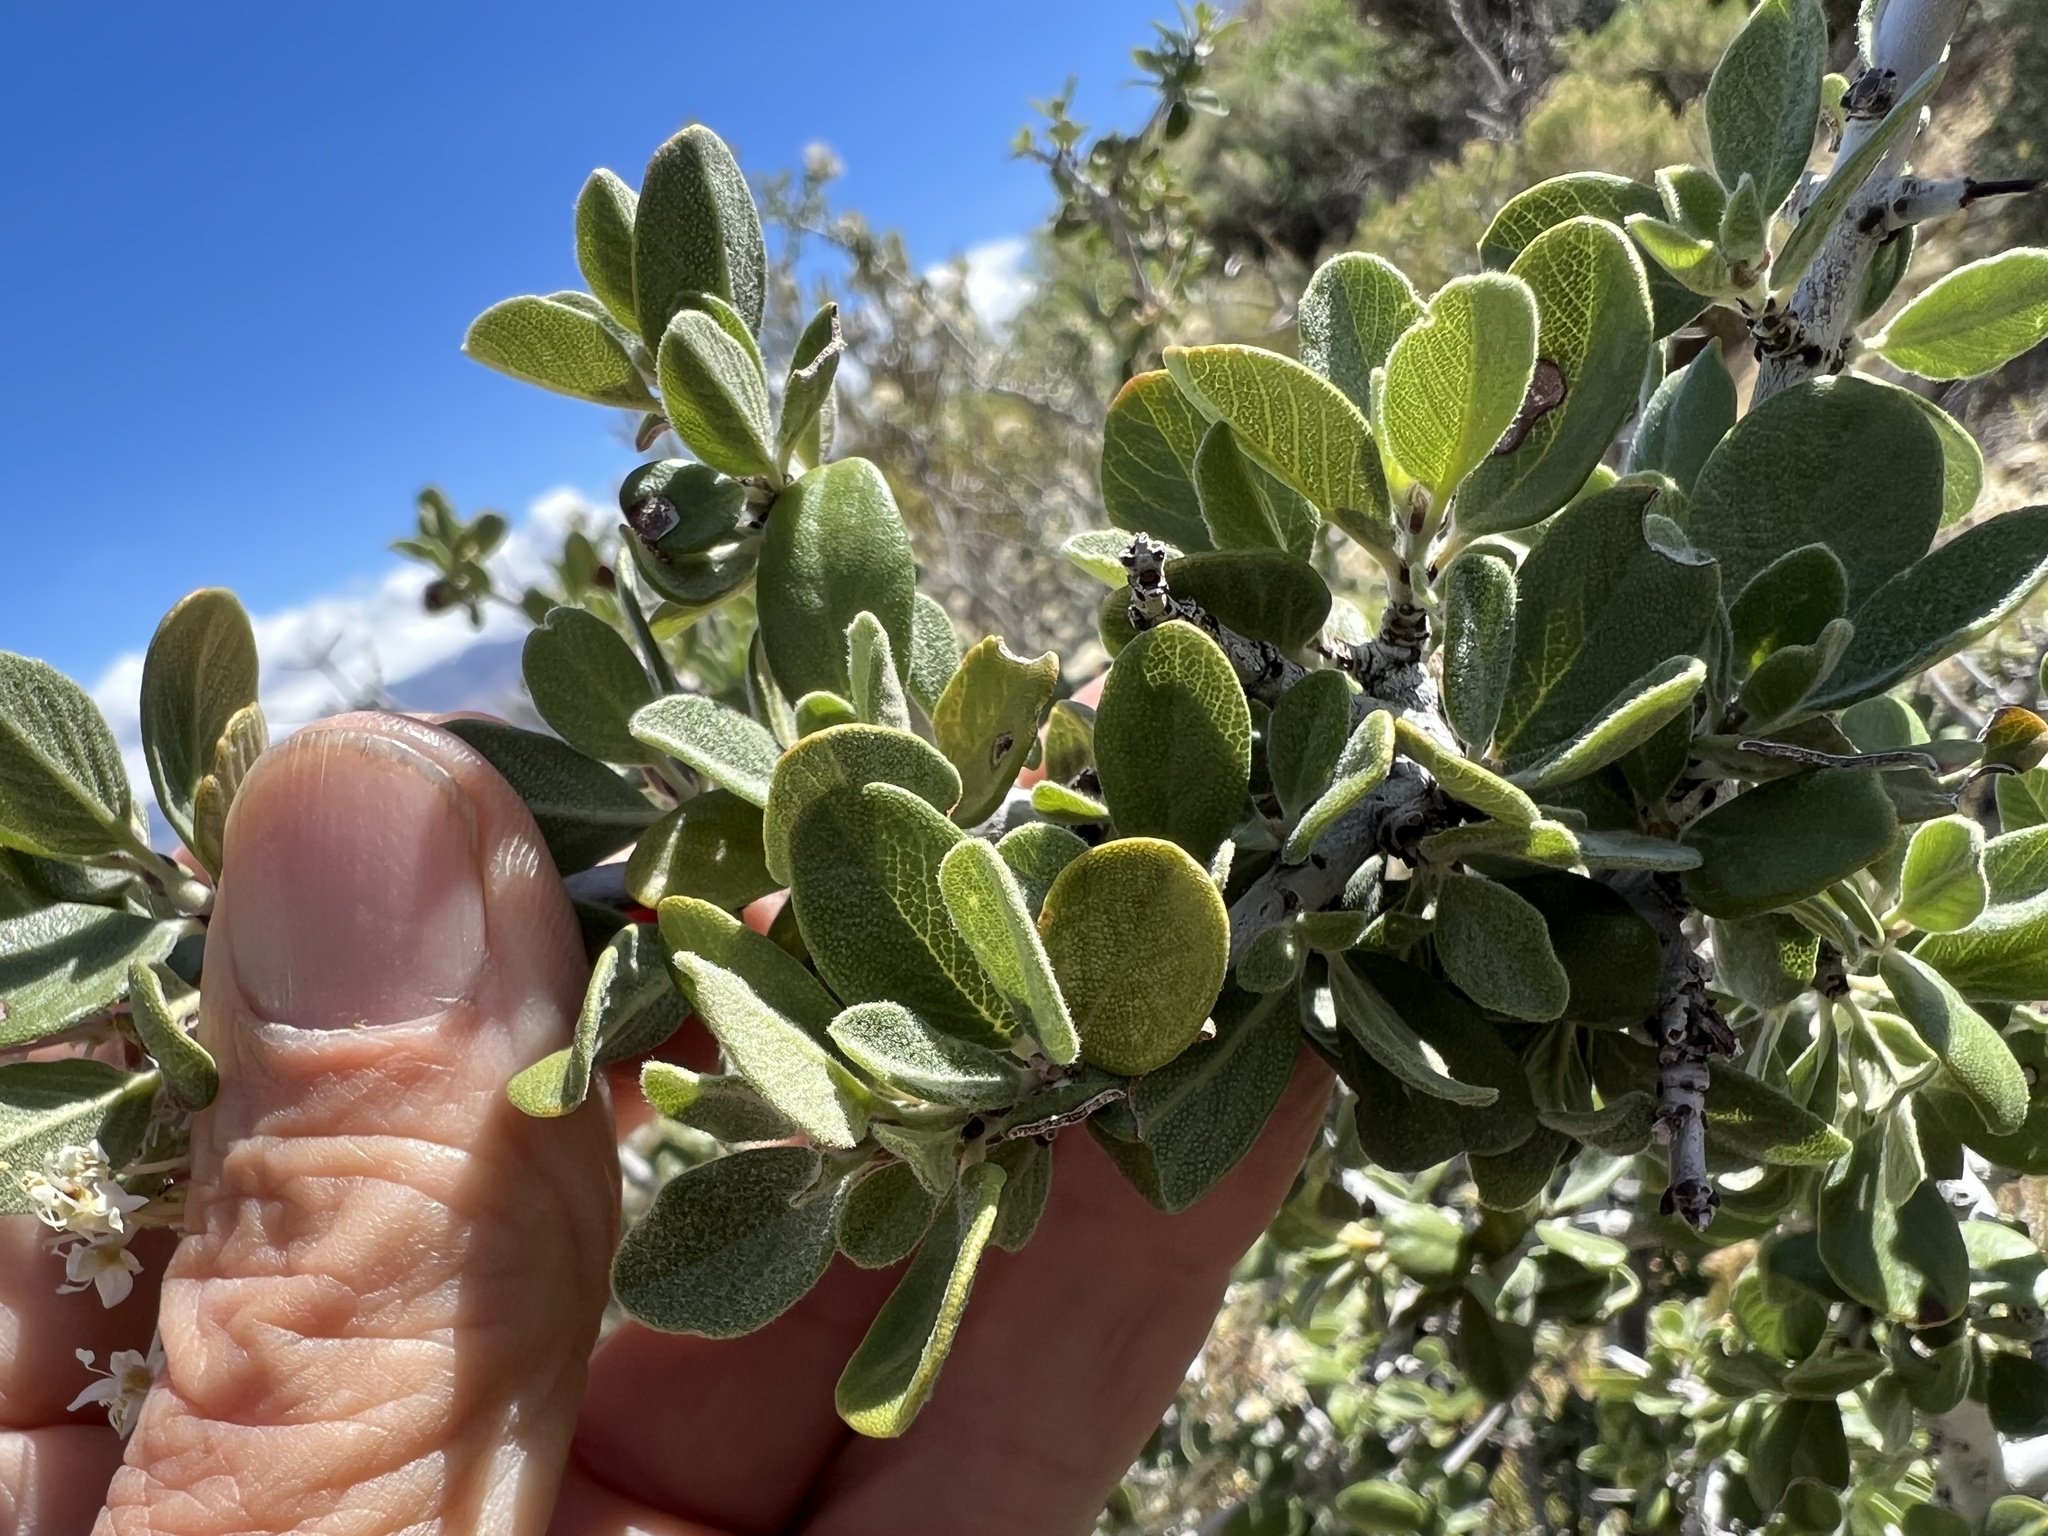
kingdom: Plantae
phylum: Tracheophyta
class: Magnoliopsida
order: Rosales
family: Rhamnaceae
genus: Ceanothus
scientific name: Ceanothus pauciflorus
